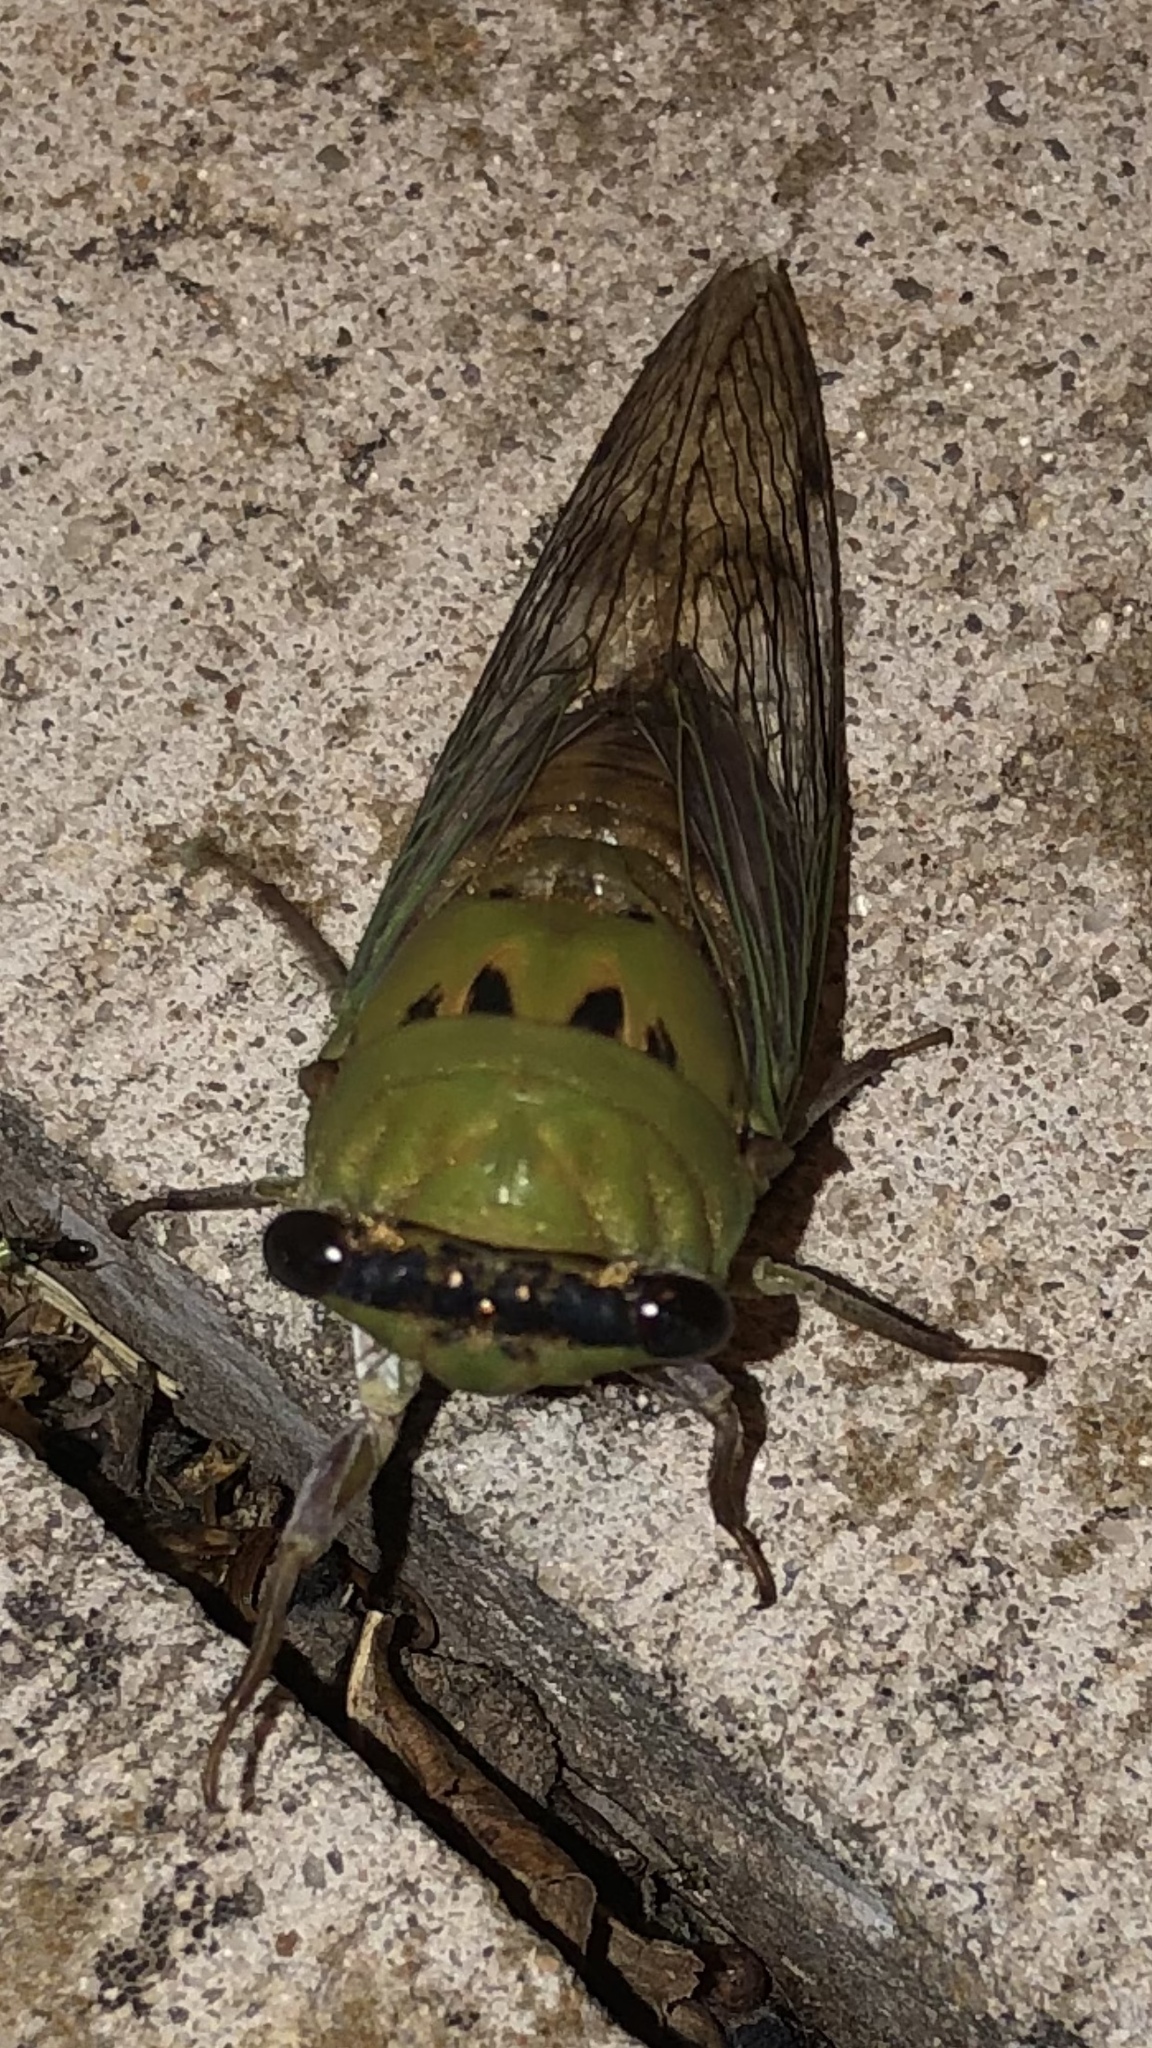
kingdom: Animalia
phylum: Arthropoda
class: Insecta
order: Hemiptera
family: Cicadidae
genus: Neotibicen
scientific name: Neotibicen superbus
